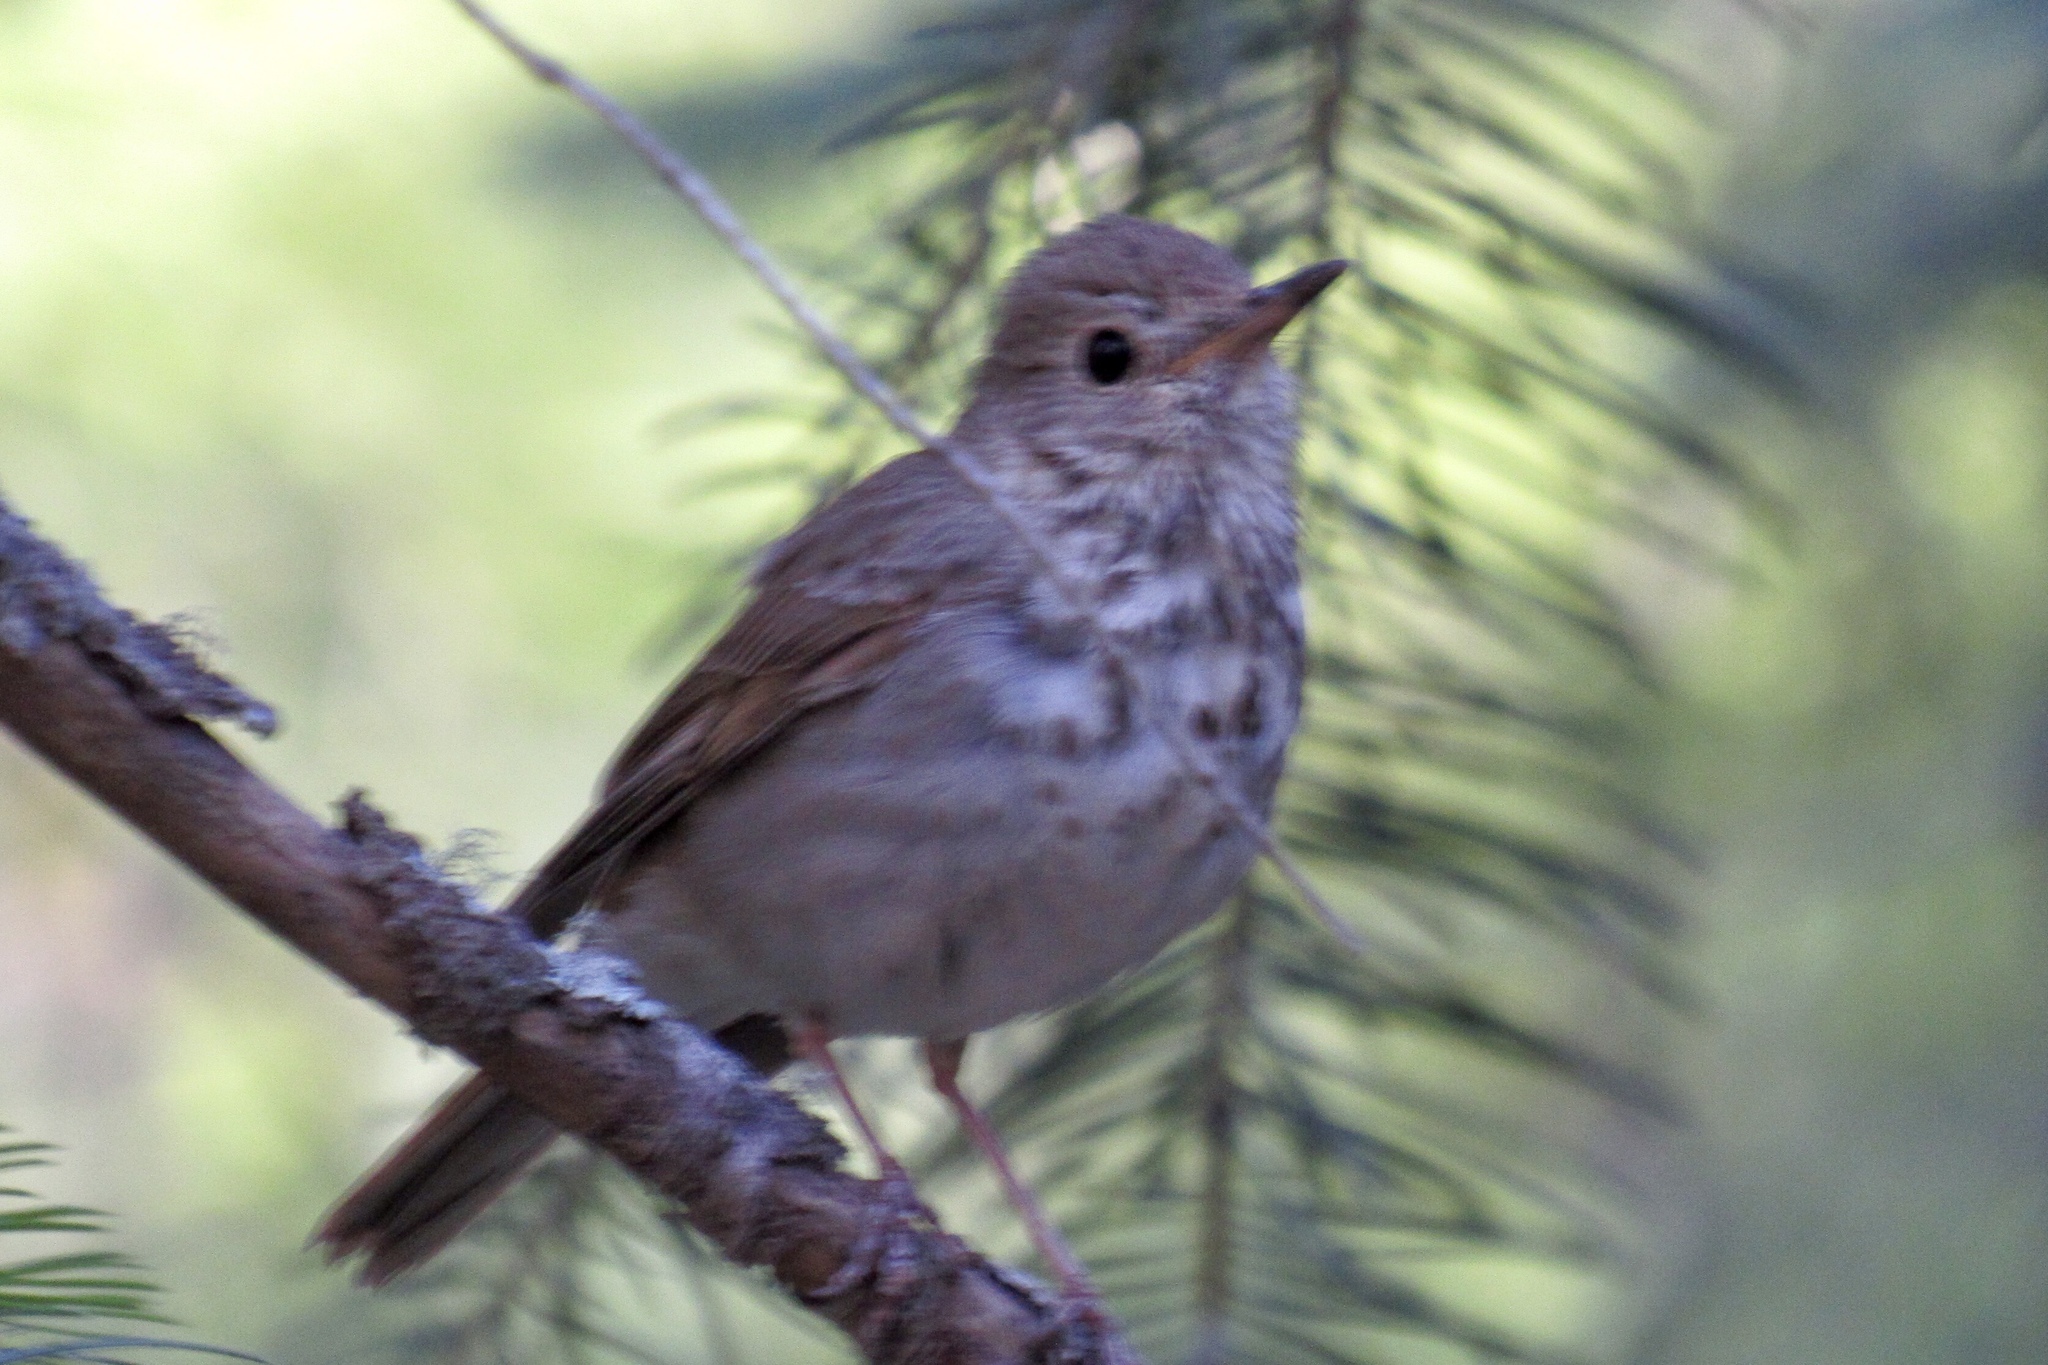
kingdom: Animalia
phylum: Chordata
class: Aves
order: Passeriformes
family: Turdidae
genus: Catharus
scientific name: Catharus guttatus
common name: Hermit thrush
